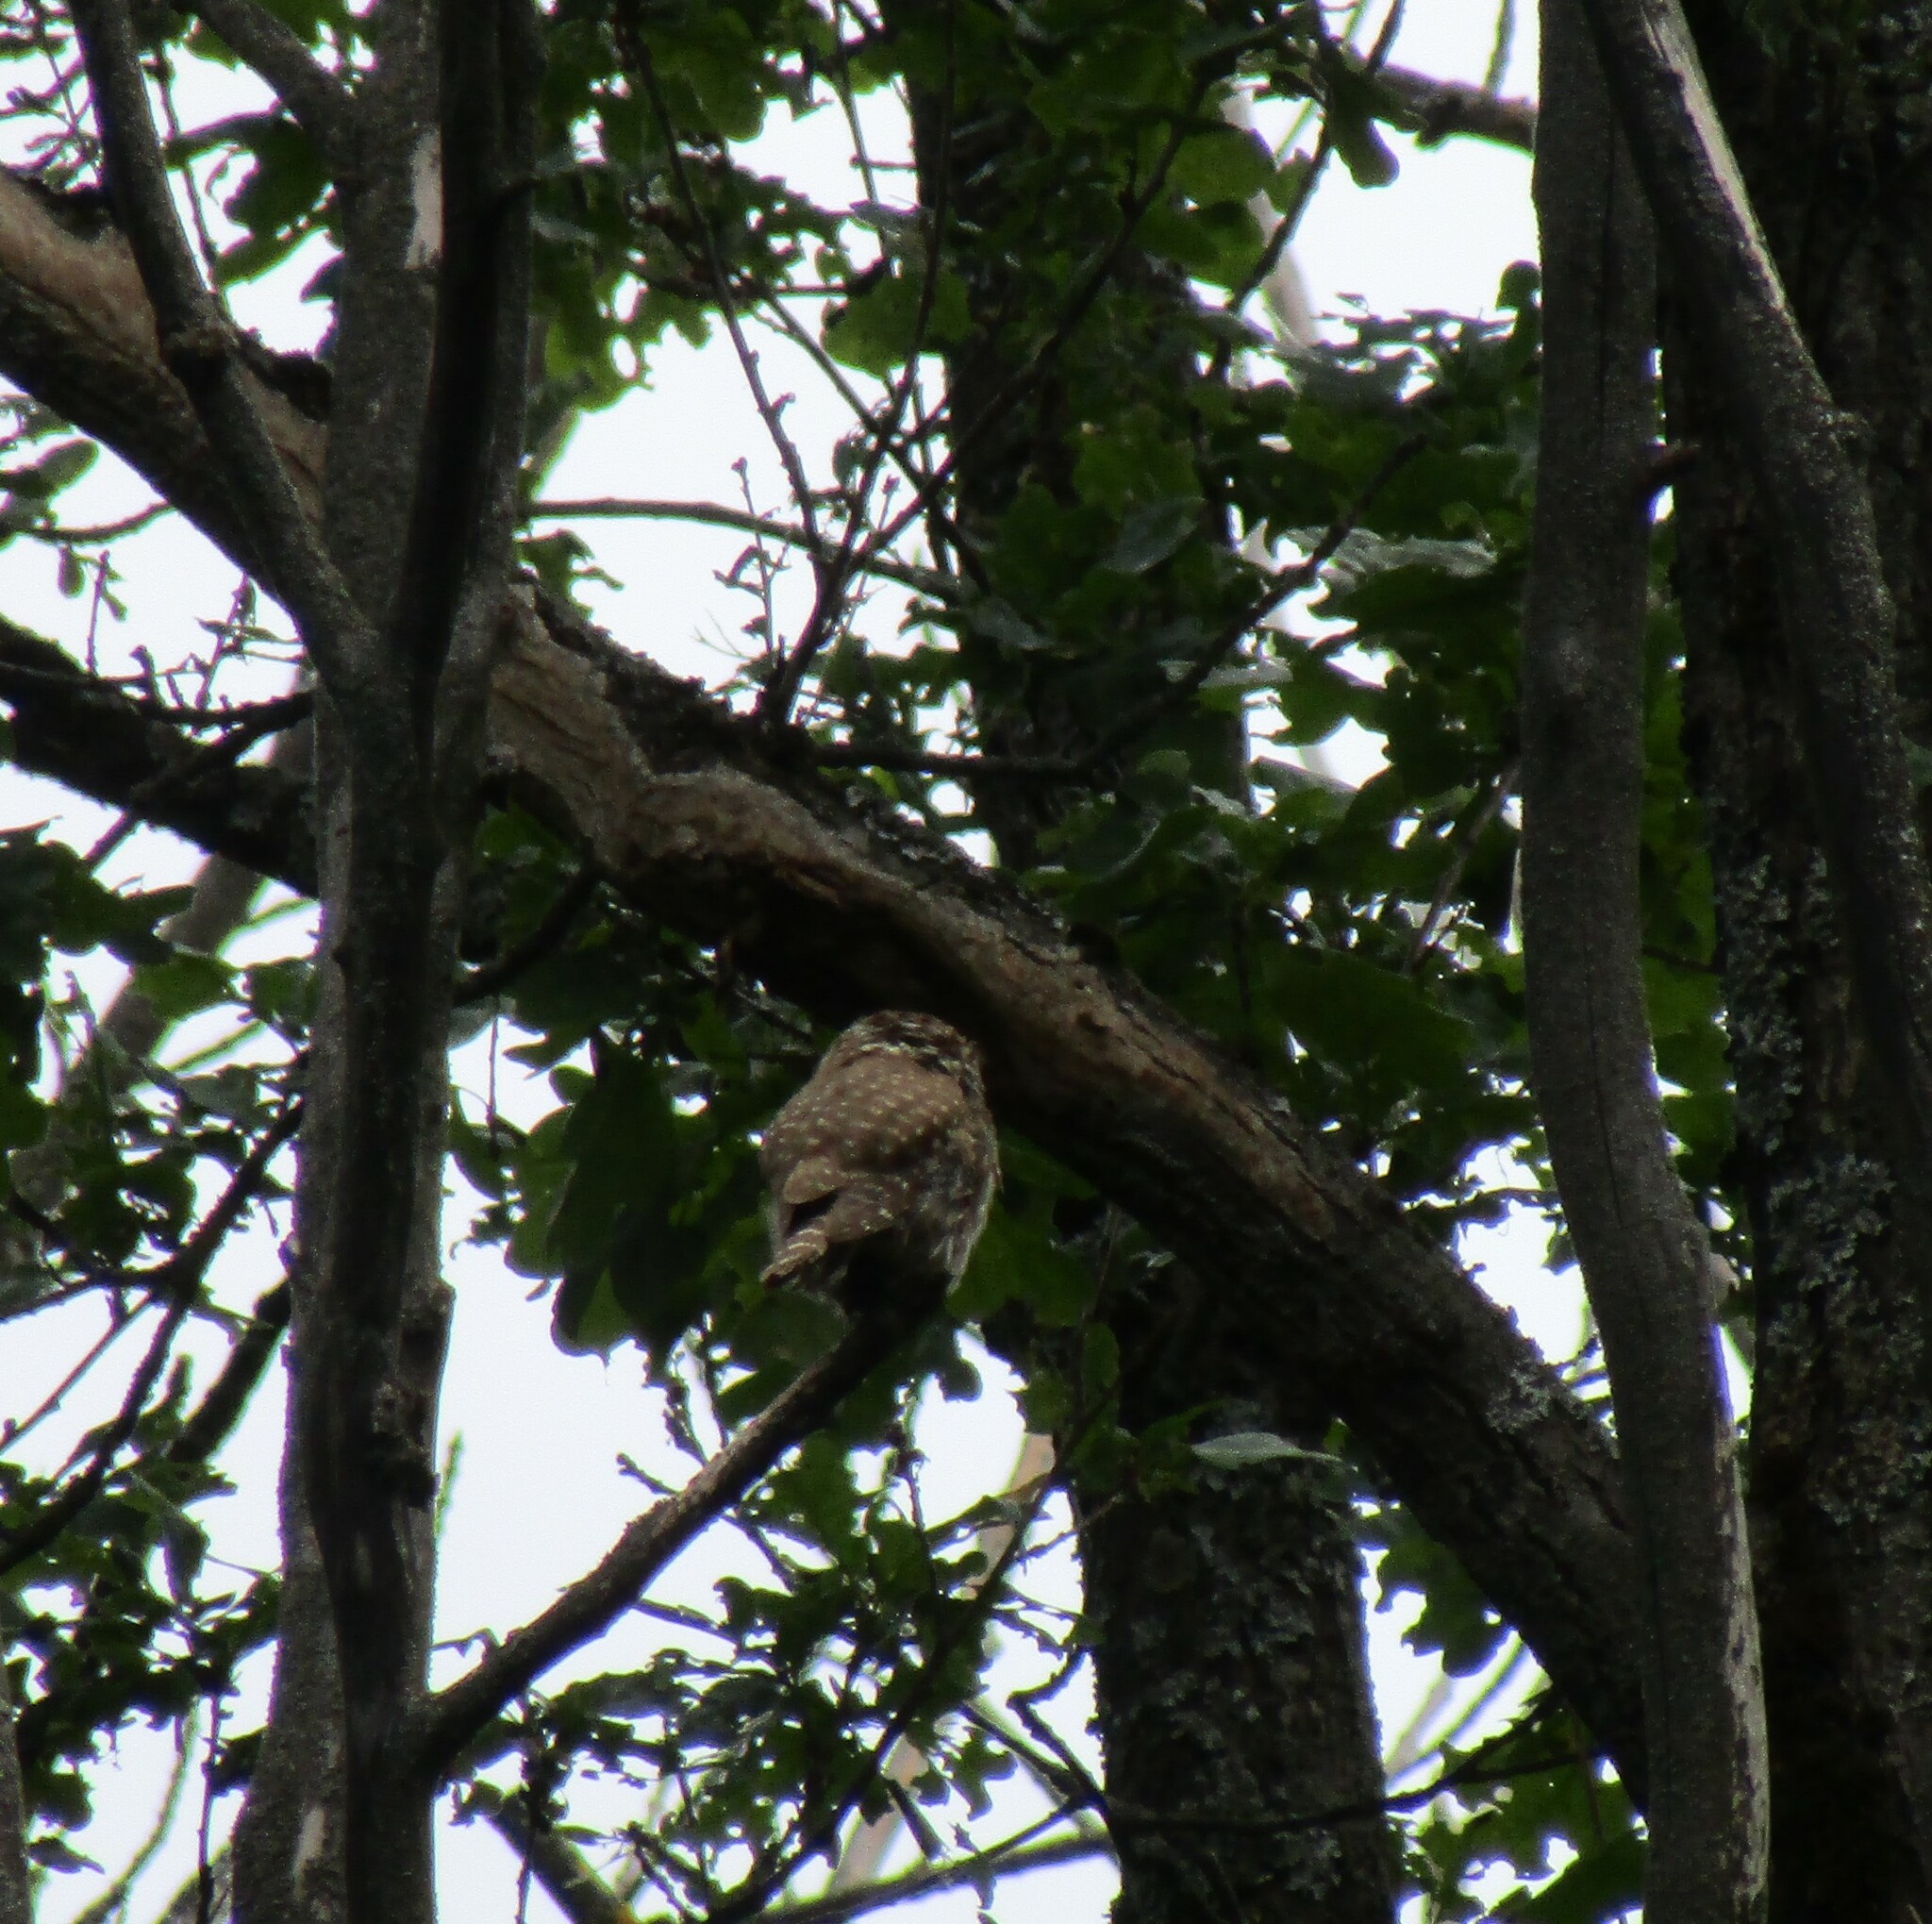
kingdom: Animalia
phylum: Chordata
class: Aves
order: Strigiformes
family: Strigidae
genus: Glaucidium
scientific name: Glaucidium passerinum
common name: Eurasian pygmy owl
